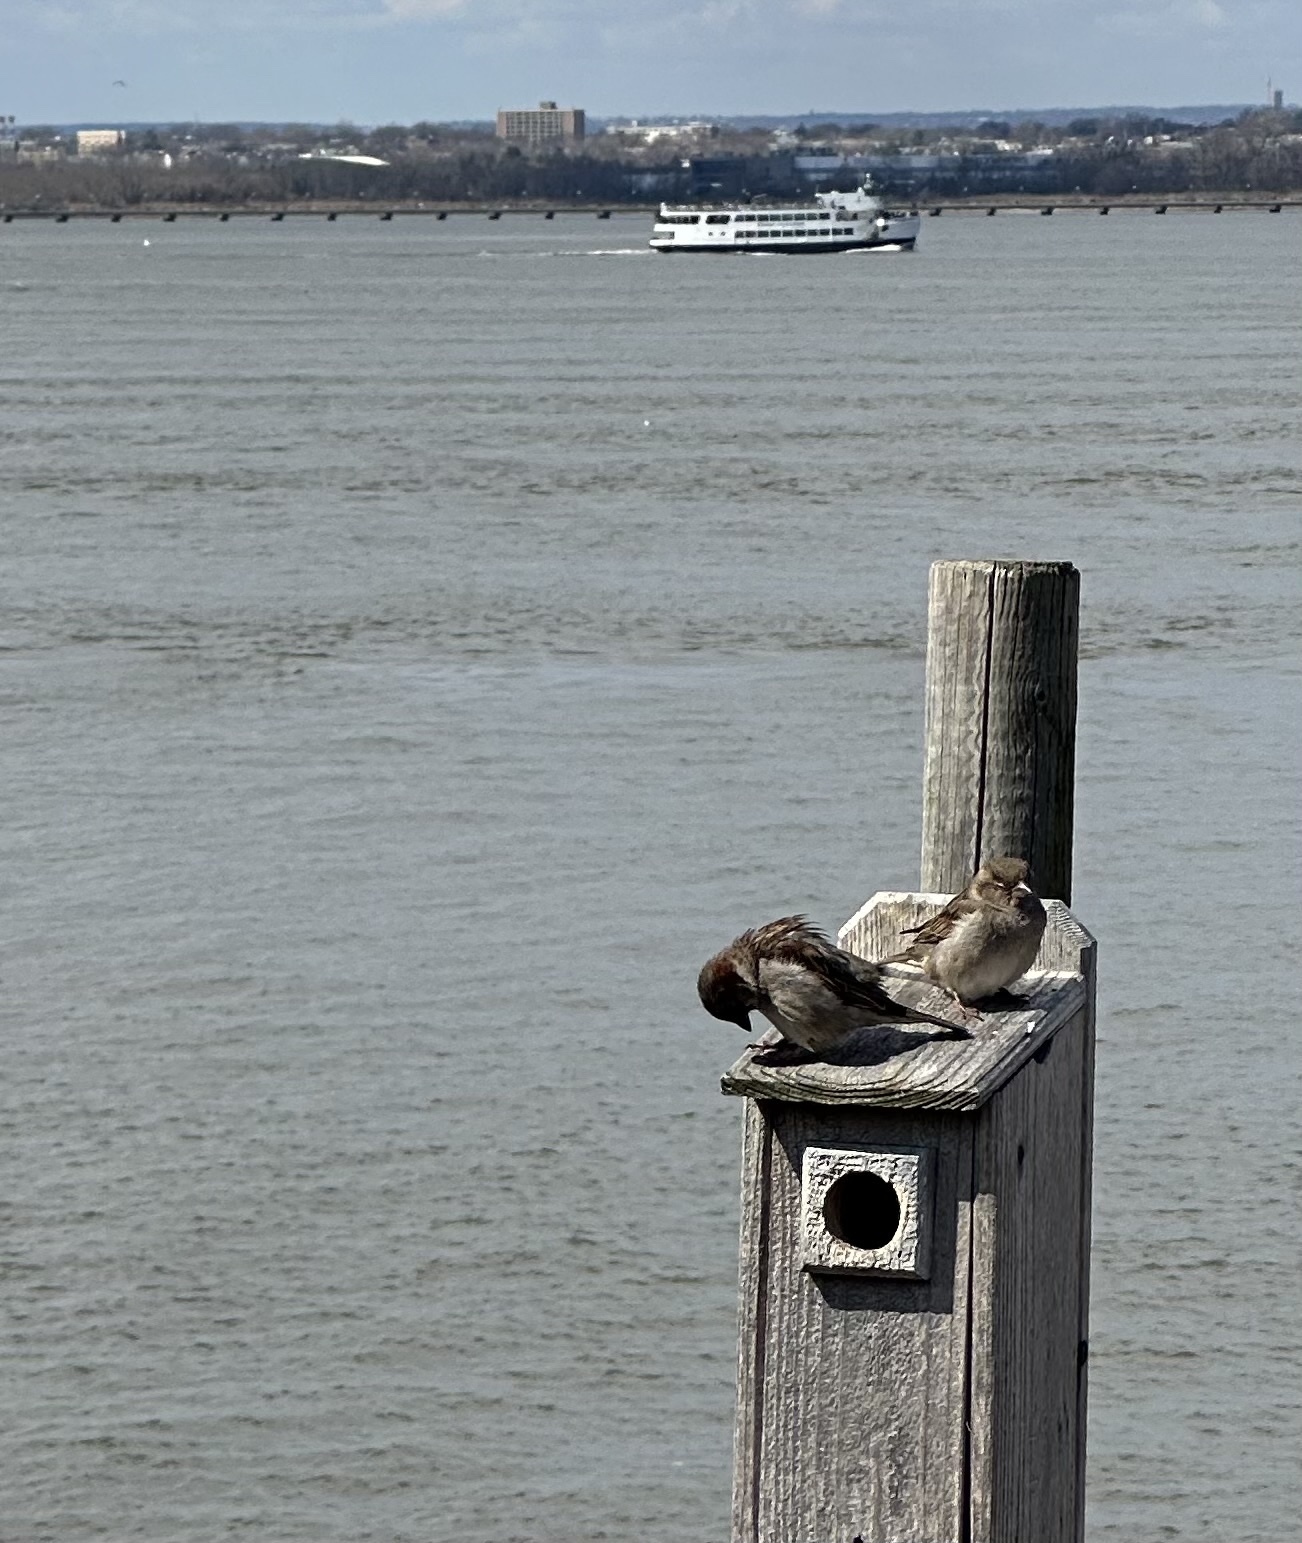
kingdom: Animalia
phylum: Chordata
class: Aves
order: Passeriformes
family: Passeridae
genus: Passer
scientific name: Passer domesticus
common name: House sparrow
